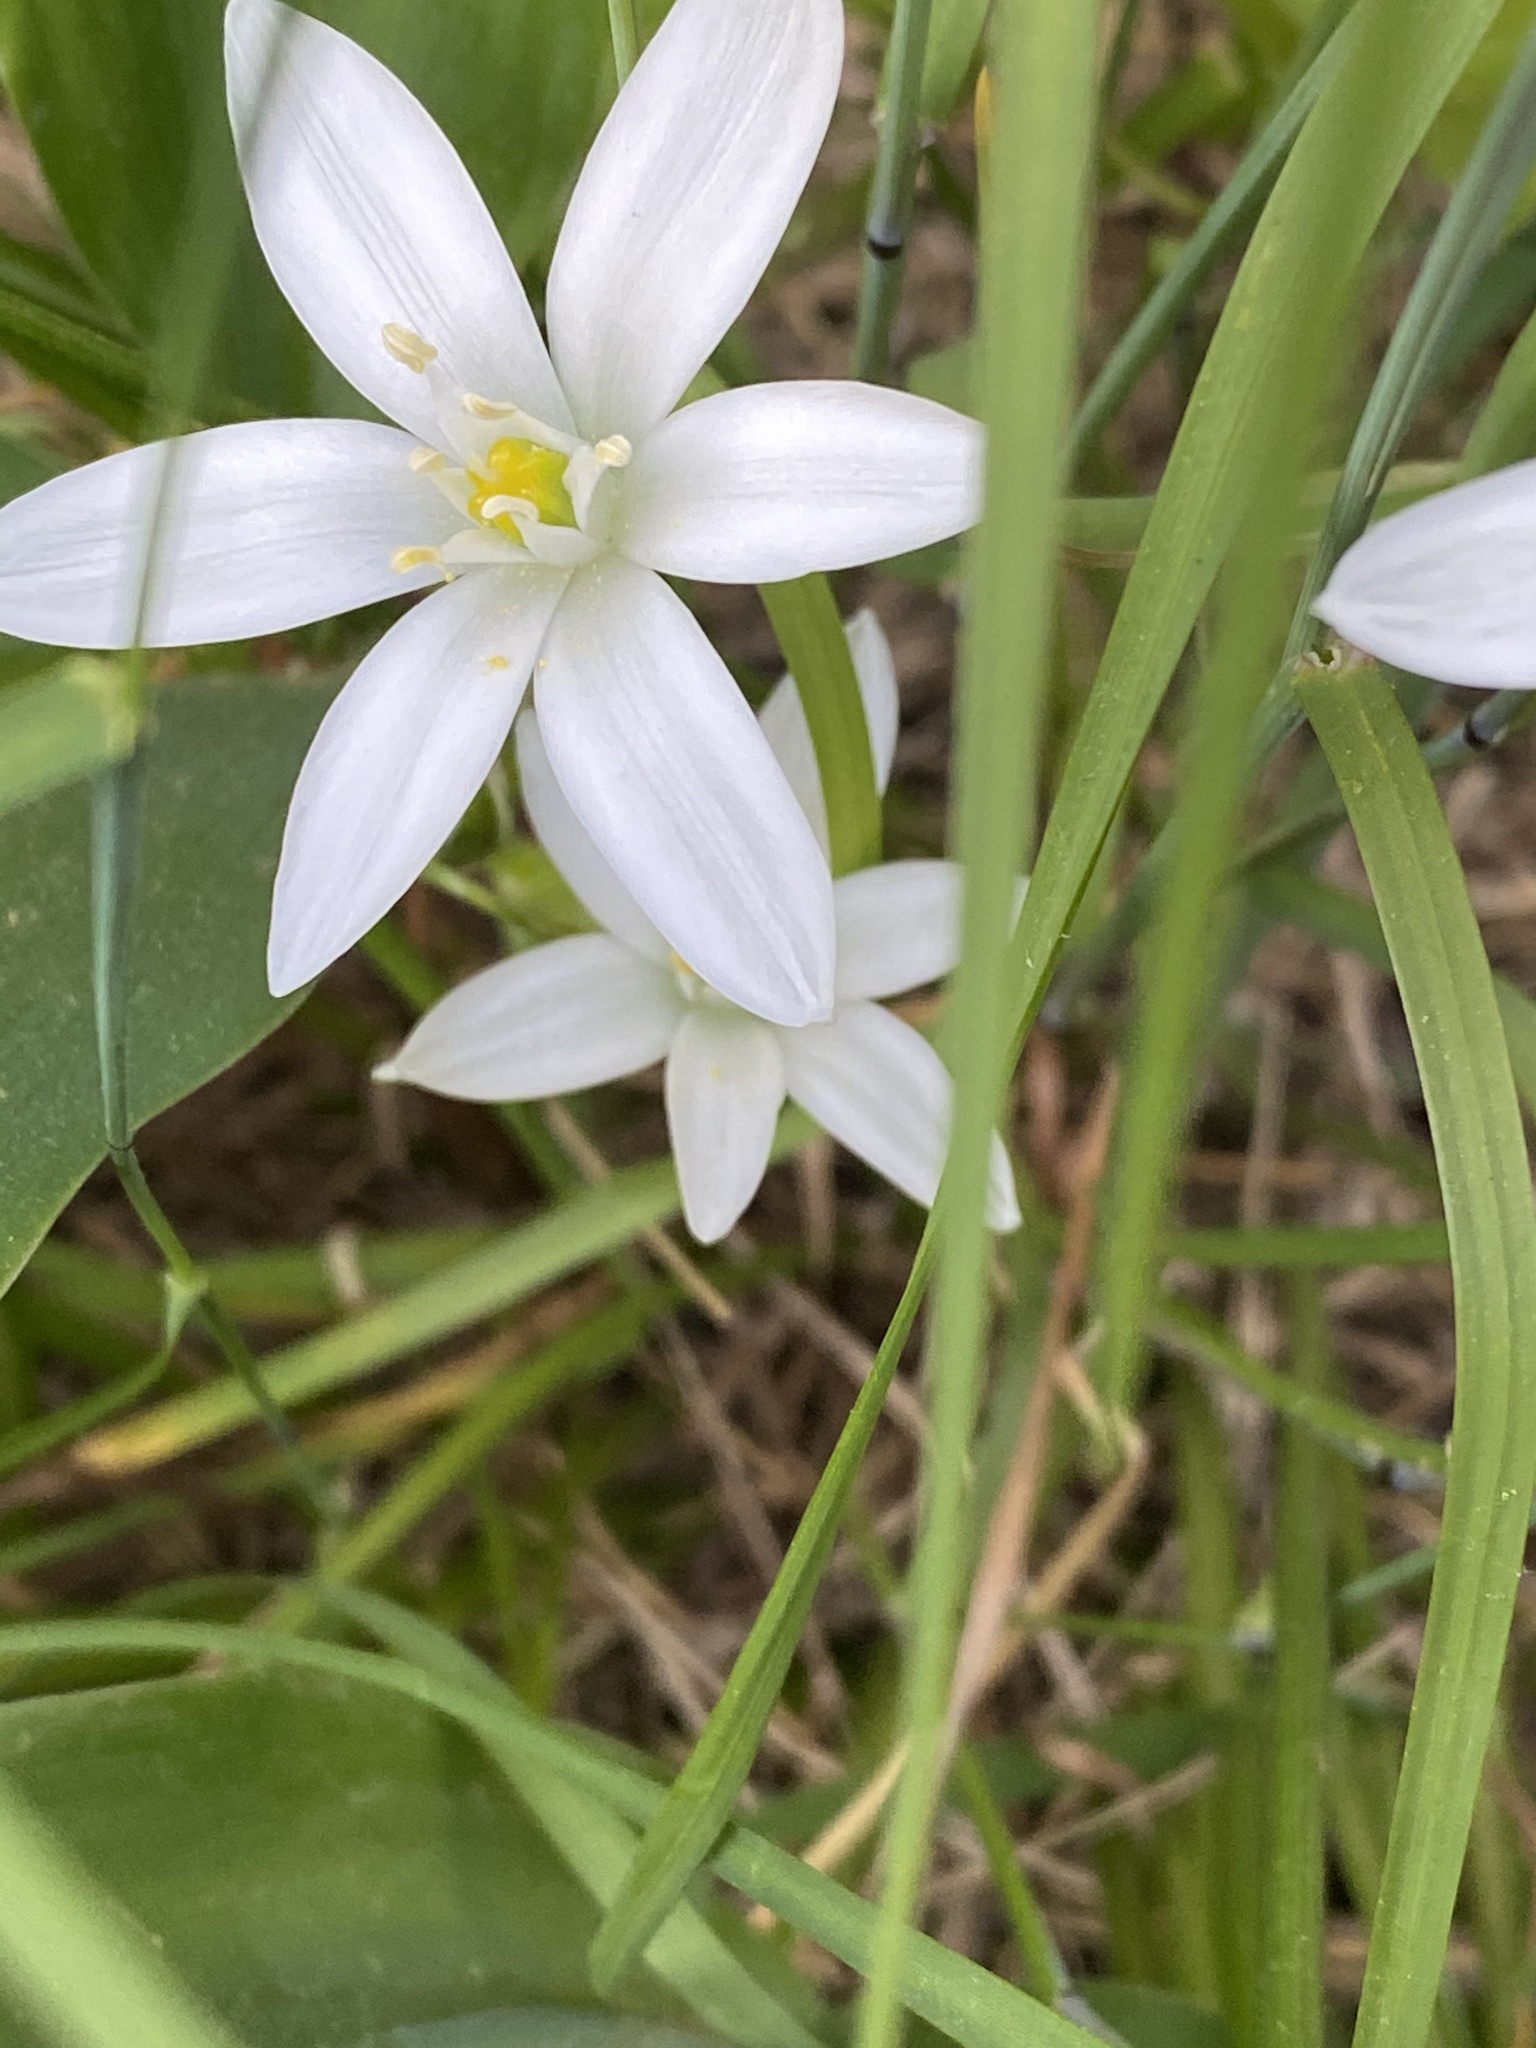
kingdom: Plantae
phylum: Tracheophyta
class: Liliopsida
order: Asparagales
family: Asparagaceae
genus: Ornithogalum
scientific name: Ornithogalum umbellatum
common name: Garden star-of-bethlehem
